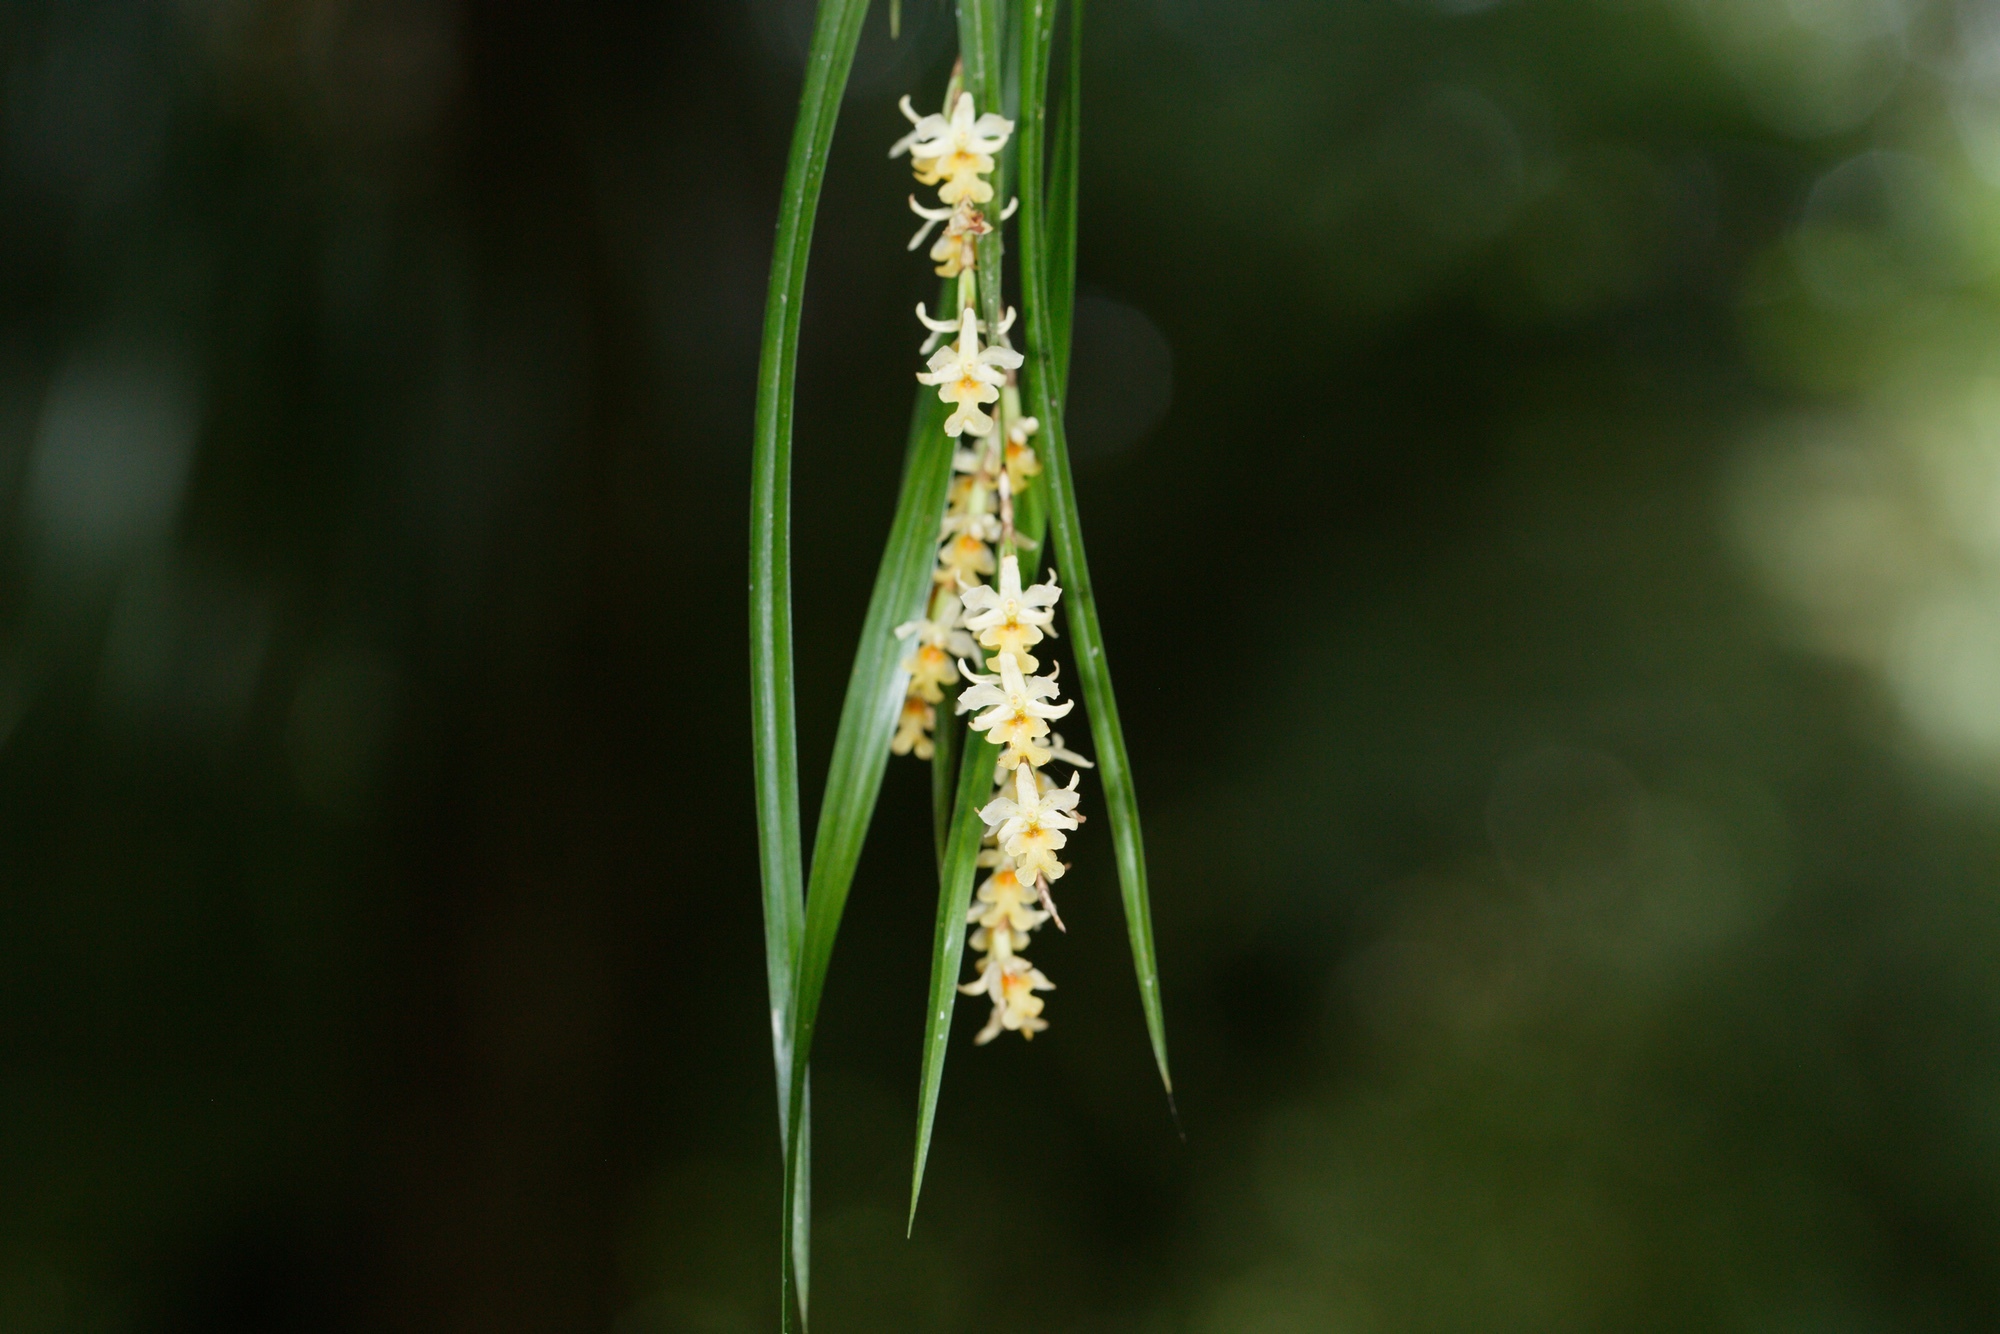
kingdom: Plantae
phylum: Tracheophyta
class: Liliopsida
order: Asparagales
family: Orchidaceae
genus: Earina
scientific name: Earina mucronata
